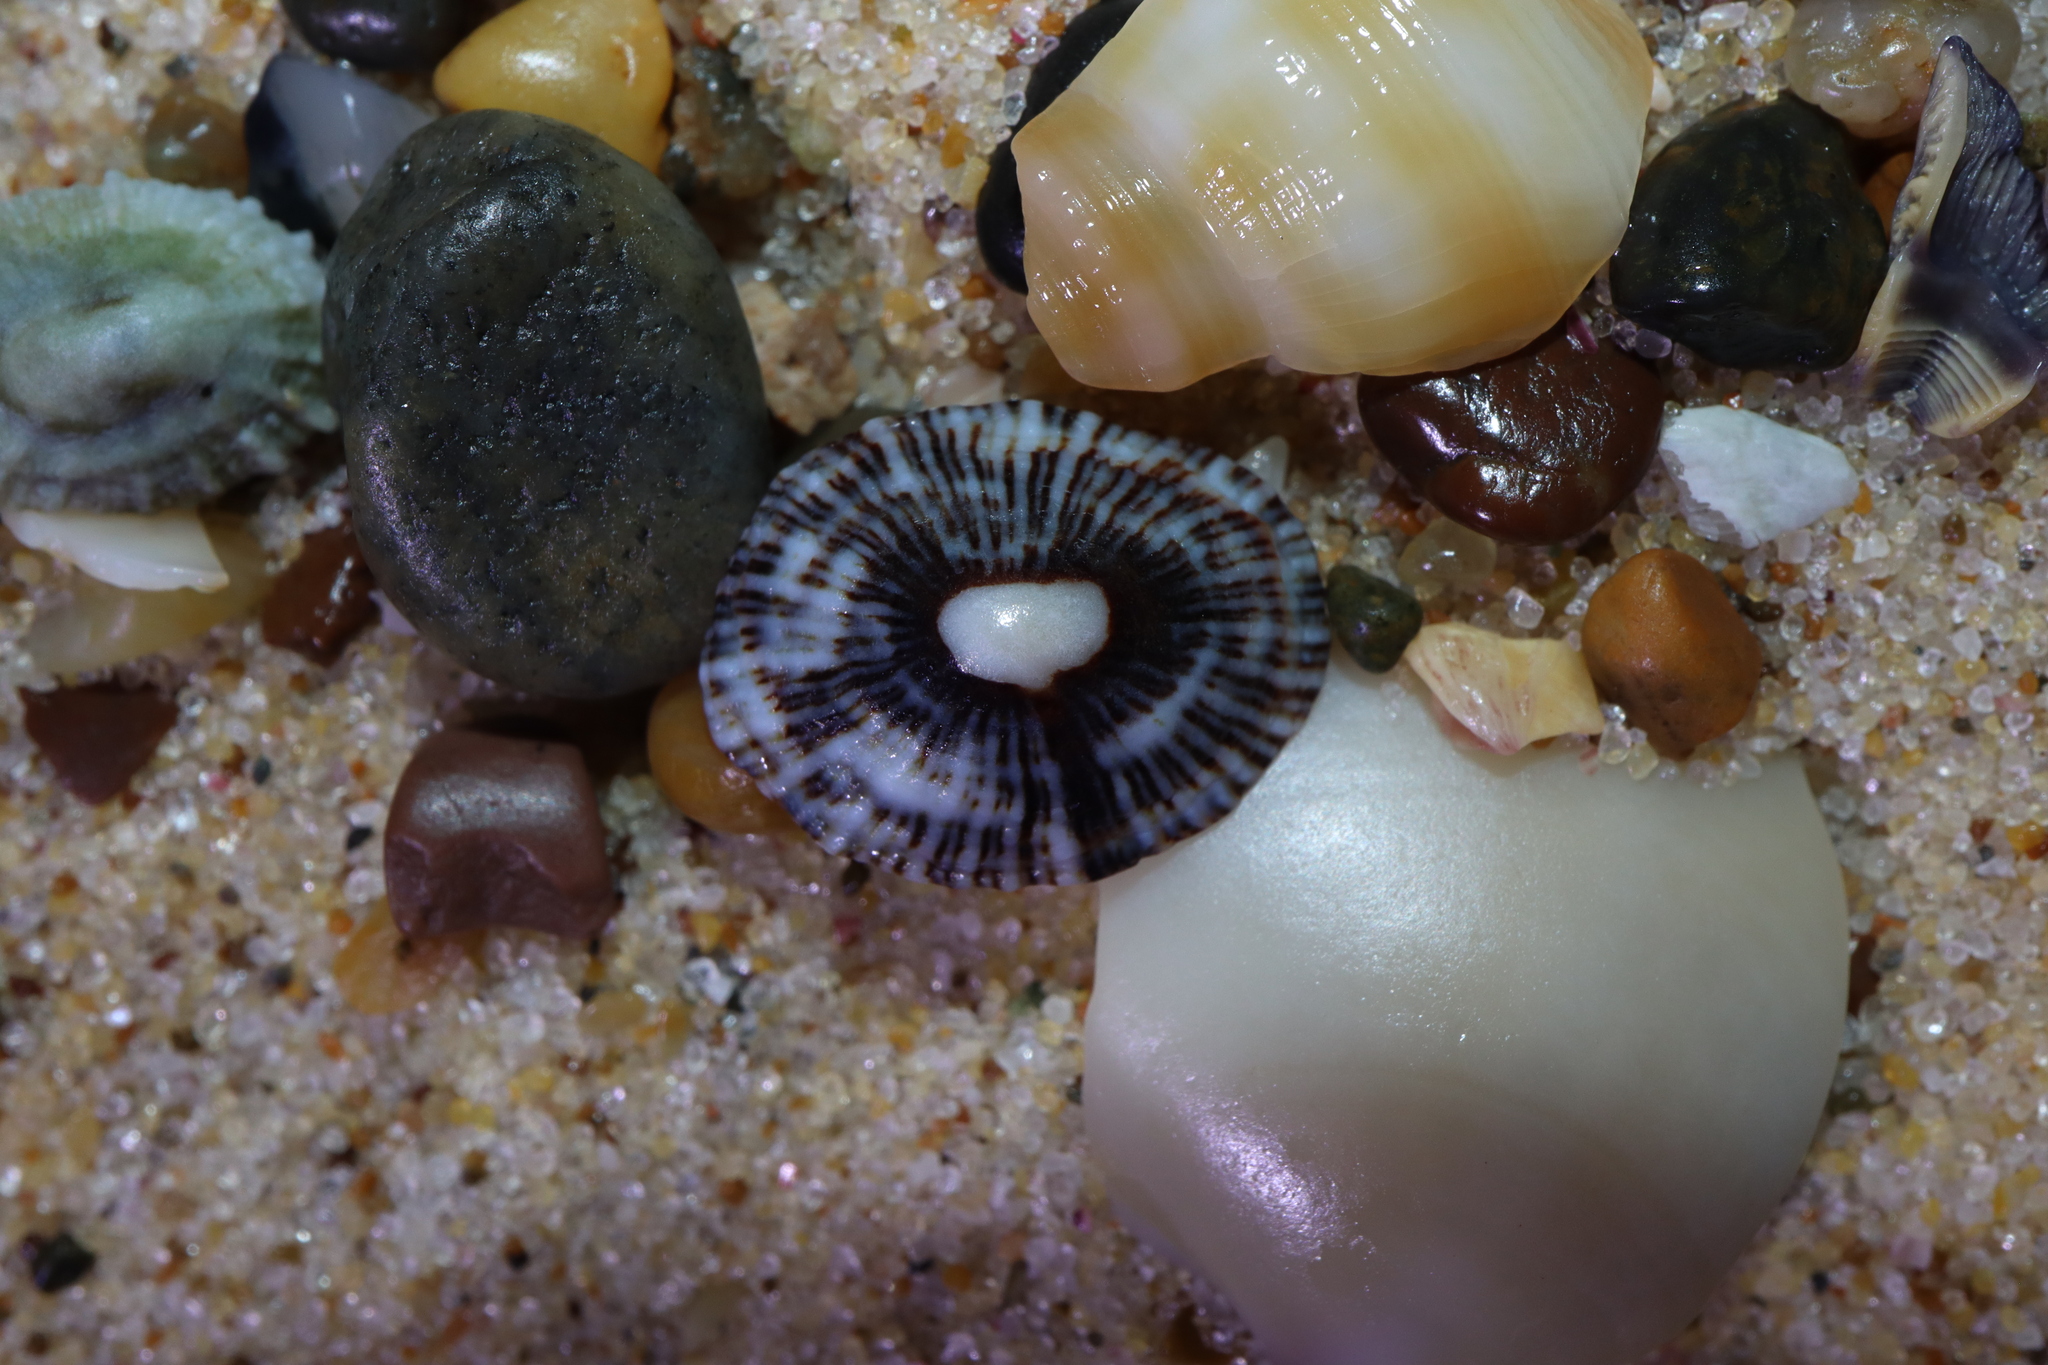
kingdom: Animalia
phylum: Mollusca
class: Gastropoda
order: Siphonariida
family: Siphonariidae
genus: Siphonaria
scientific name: Siphonaria funiculata
